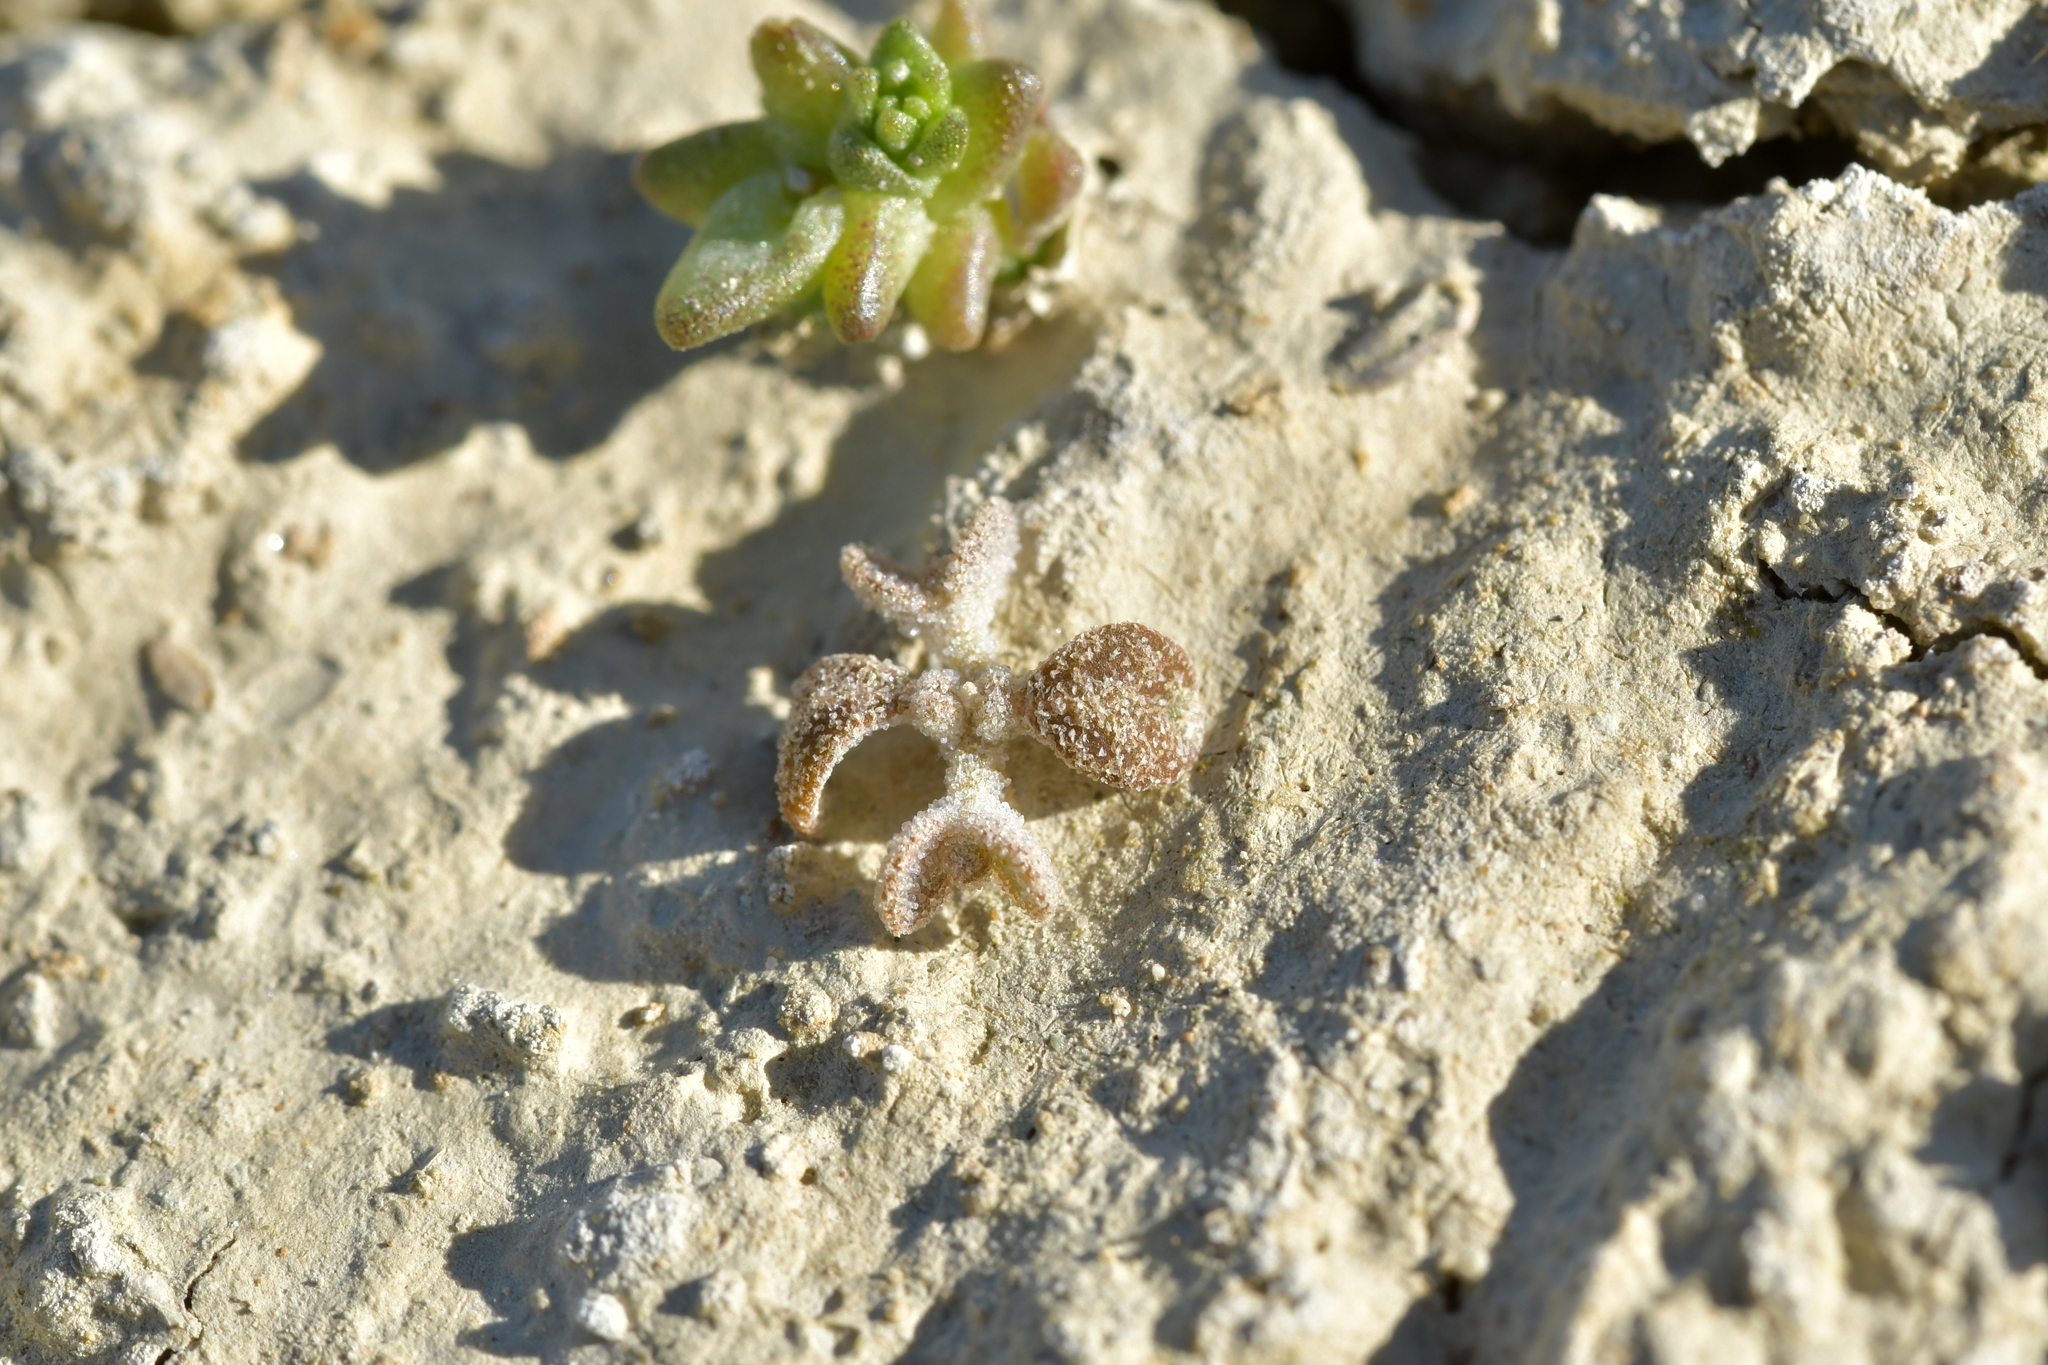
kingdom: Plantae
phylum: Tracheophyta
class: Magnoliopsida
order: Caryophyllales
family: Amaranthaceae
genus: Atriplex
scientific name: Atriplex buchananii
